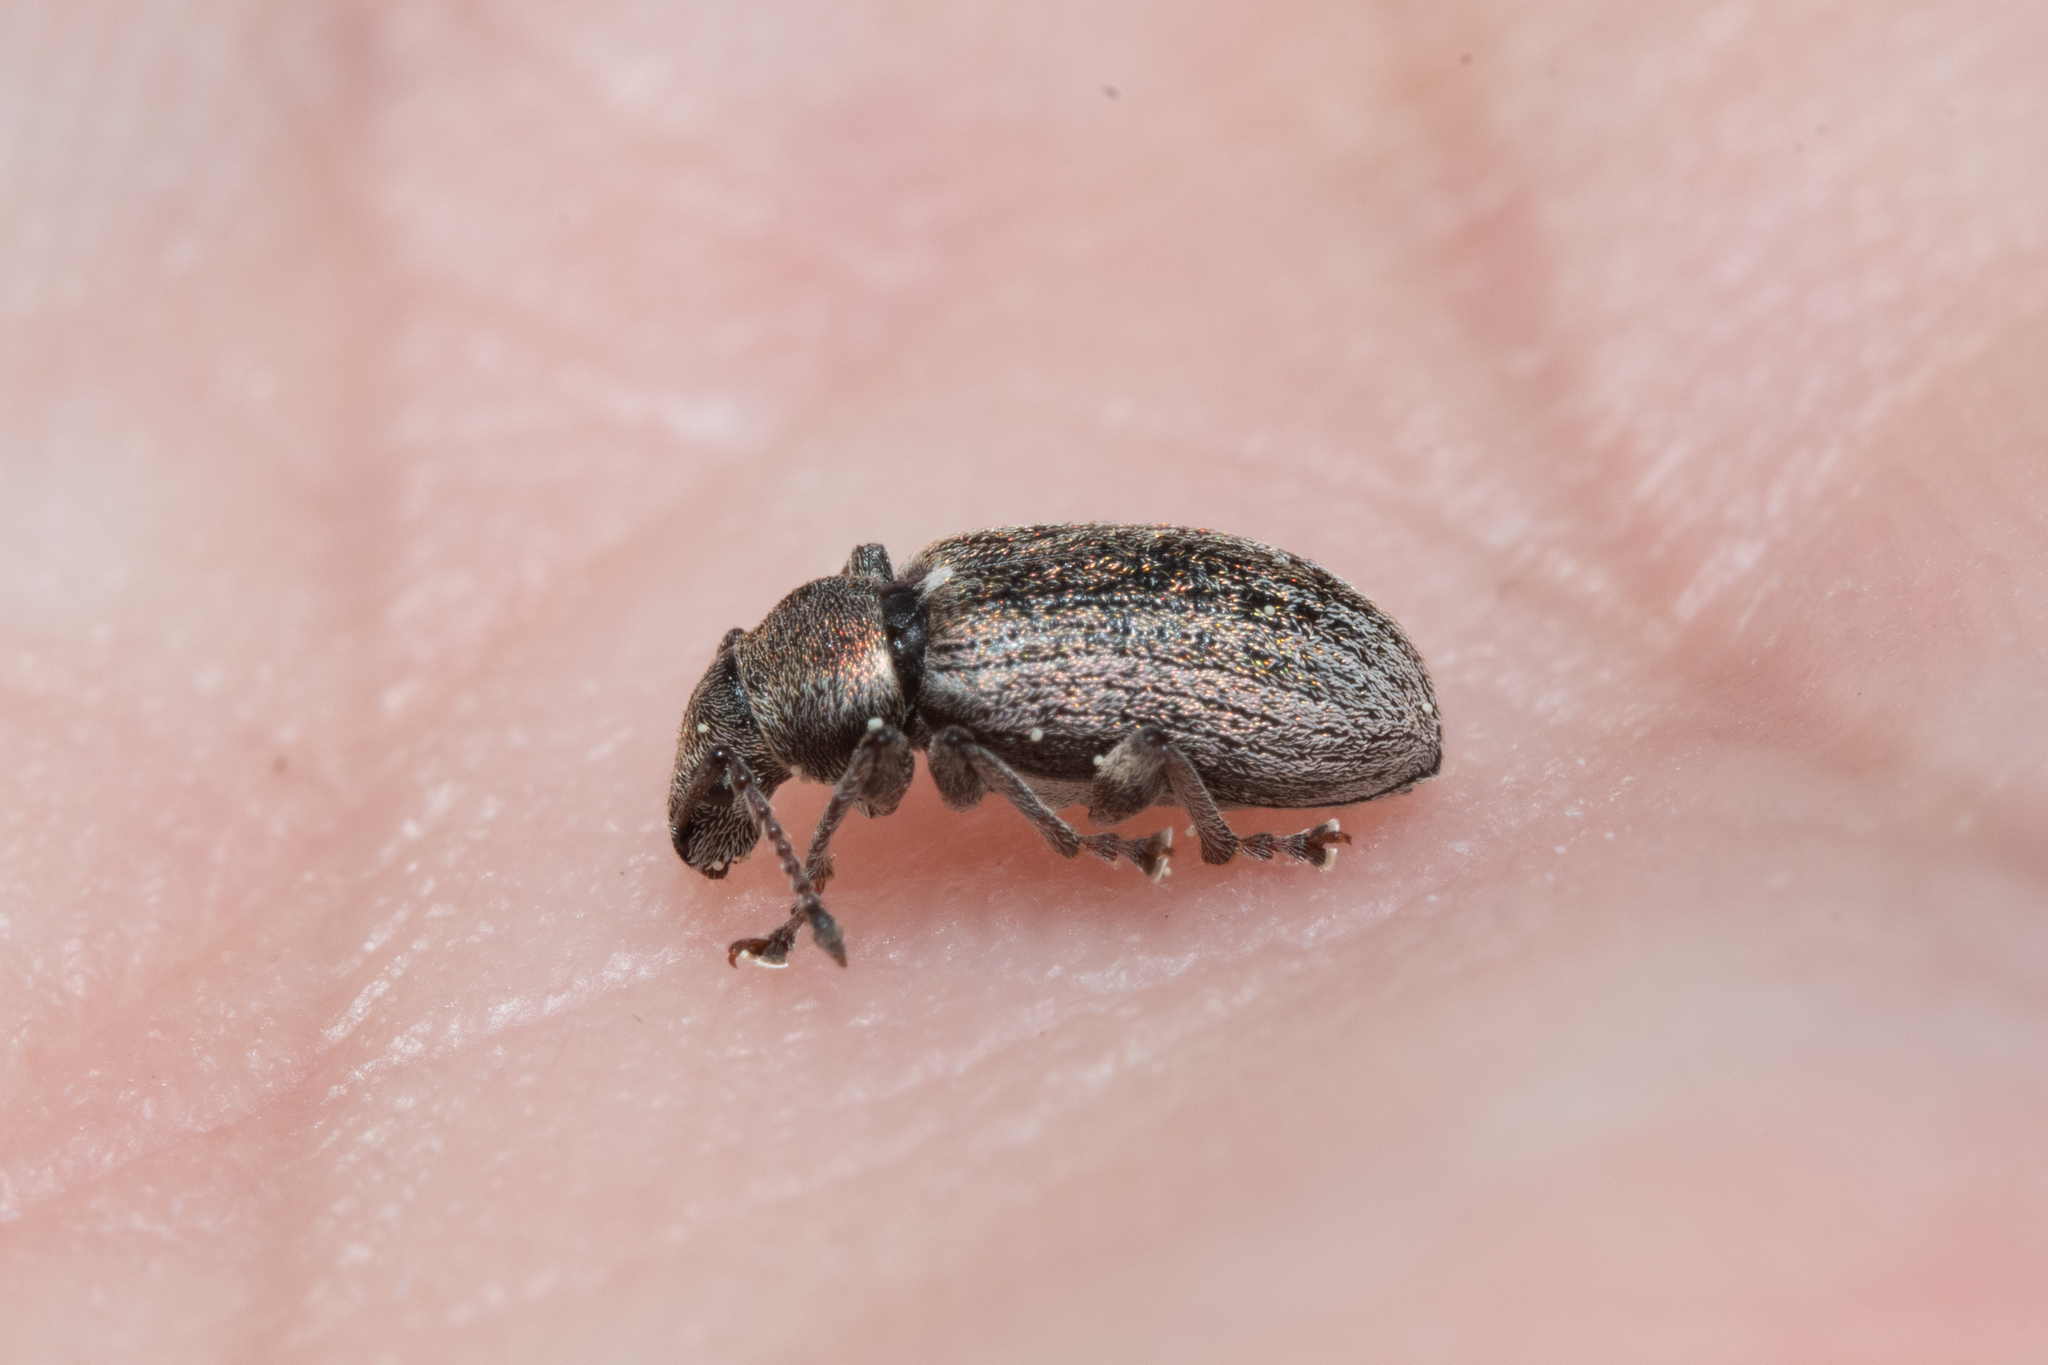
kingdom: Animalia
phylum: Arthropoda
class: Insecta
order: Coleoptera
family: Curculionidae
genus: Phyllobius
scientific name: Phyllobius pyri
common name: Common leaf weevil
